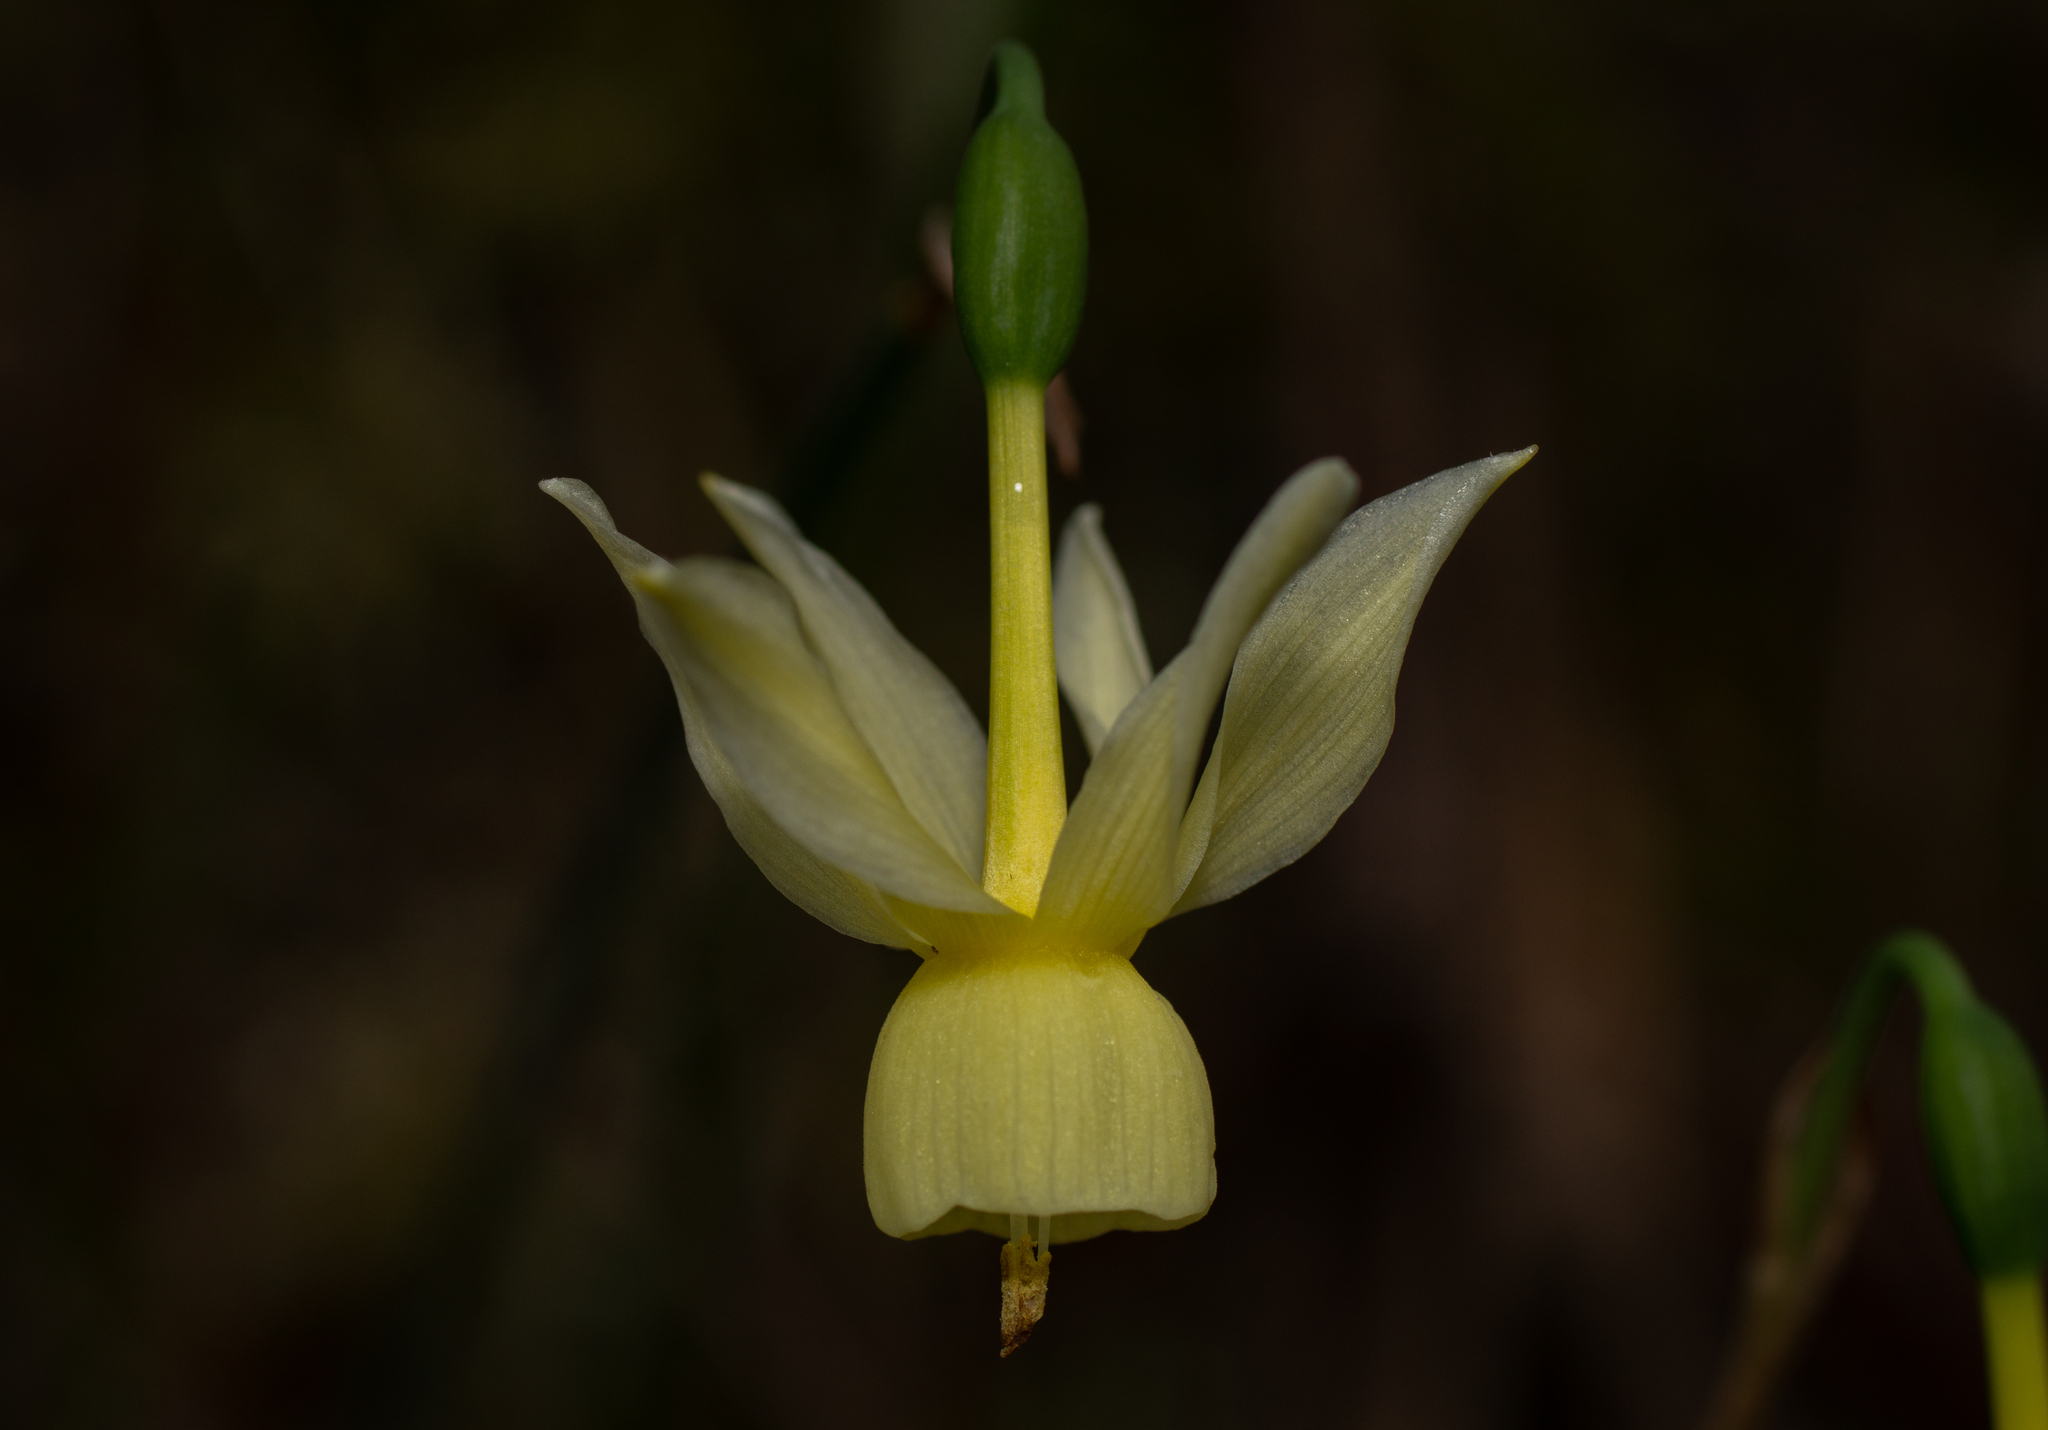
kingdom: Plantae
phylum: Tracheophyta
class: Liliopsida
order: Asparagales
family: Amaryllidaceae
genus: Narcissus
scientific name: Narcissus triandrus
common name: Angel's-tears
